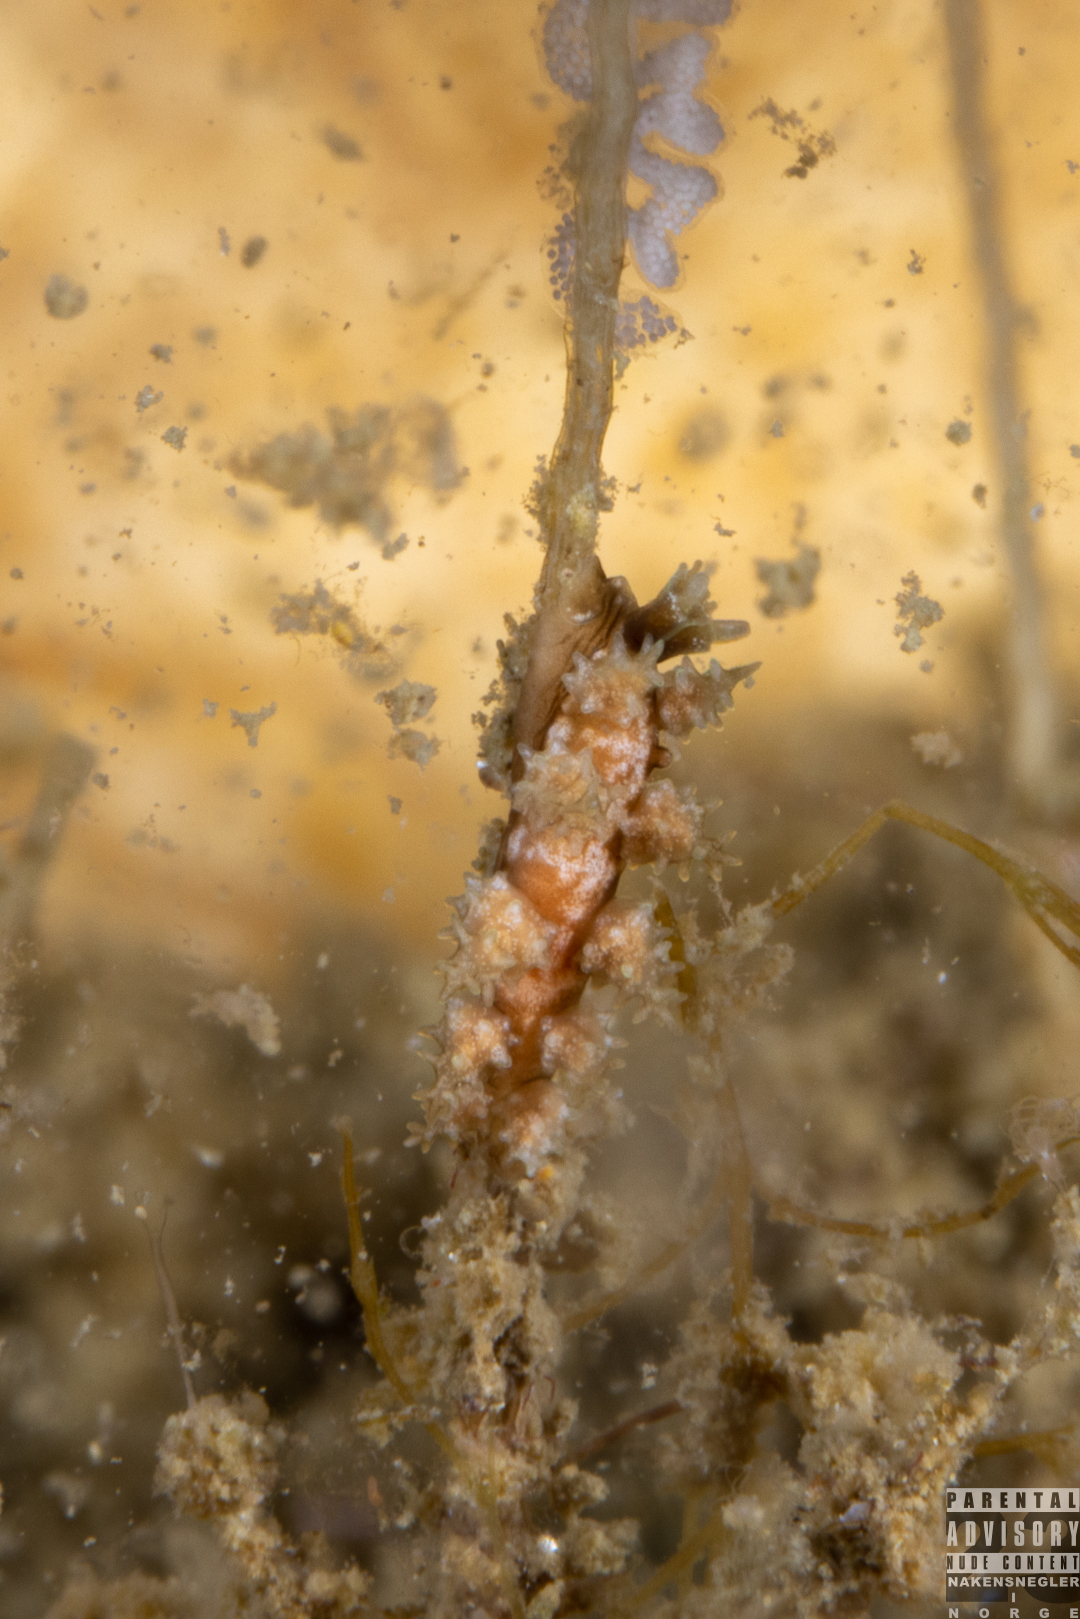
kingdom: Animalia
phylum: Mollusca
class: Gastropoda
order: Nudibranchia
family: Dotidae
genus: Doto
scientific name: Doto hystrix
